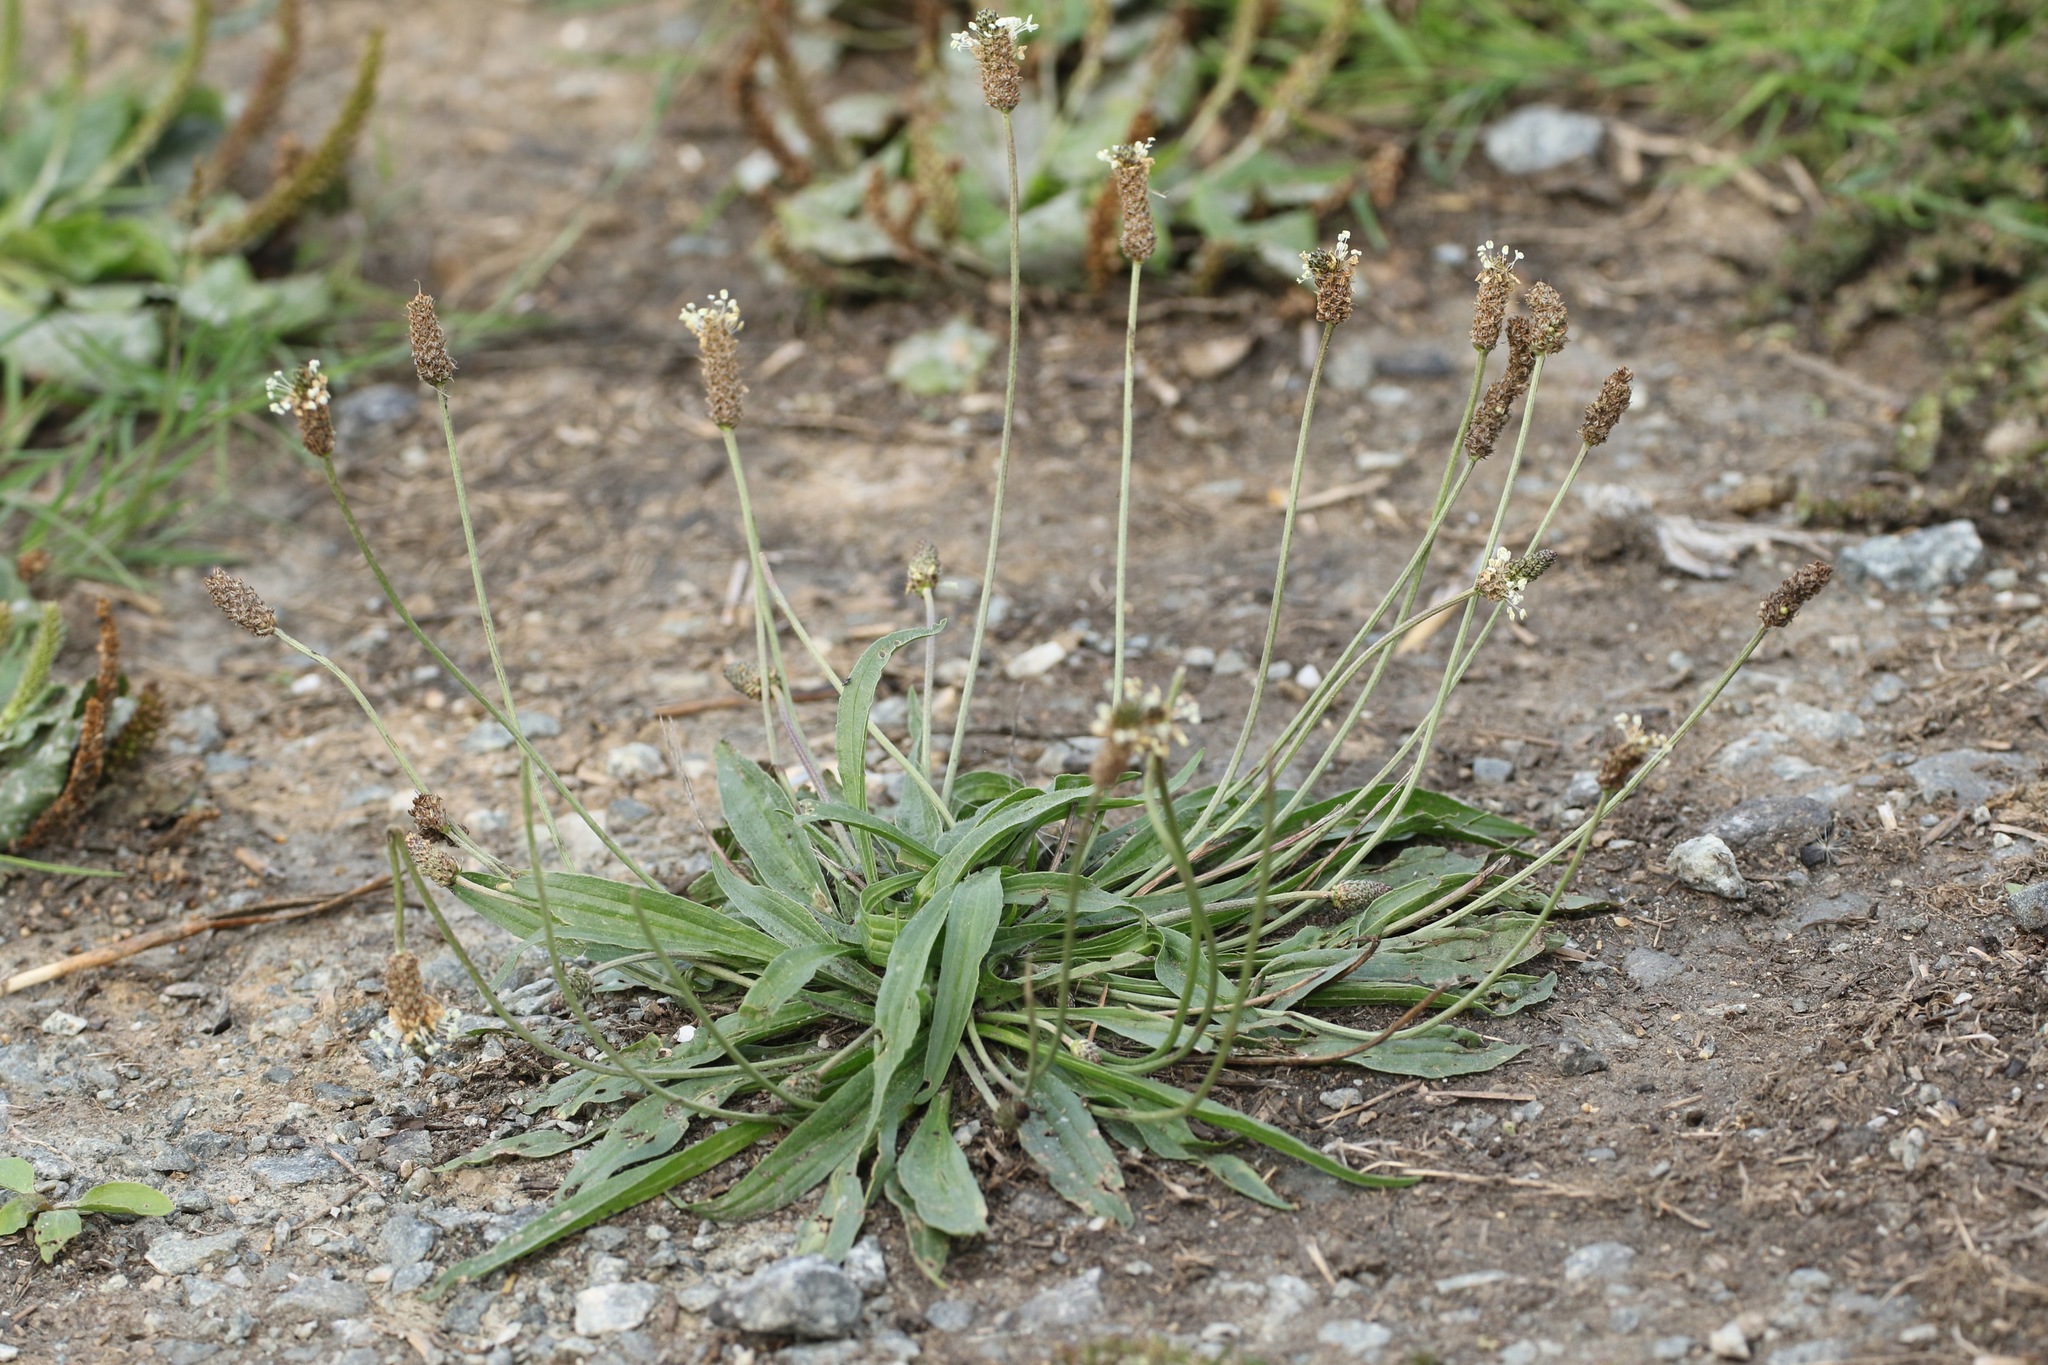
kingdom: Plantae
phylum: Tracheophyta
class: Magnoliopsida
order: Lamiales
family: Plantaginaceae
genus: Plantago
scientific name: Plantago lanceolata
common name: Ribwort plantain
